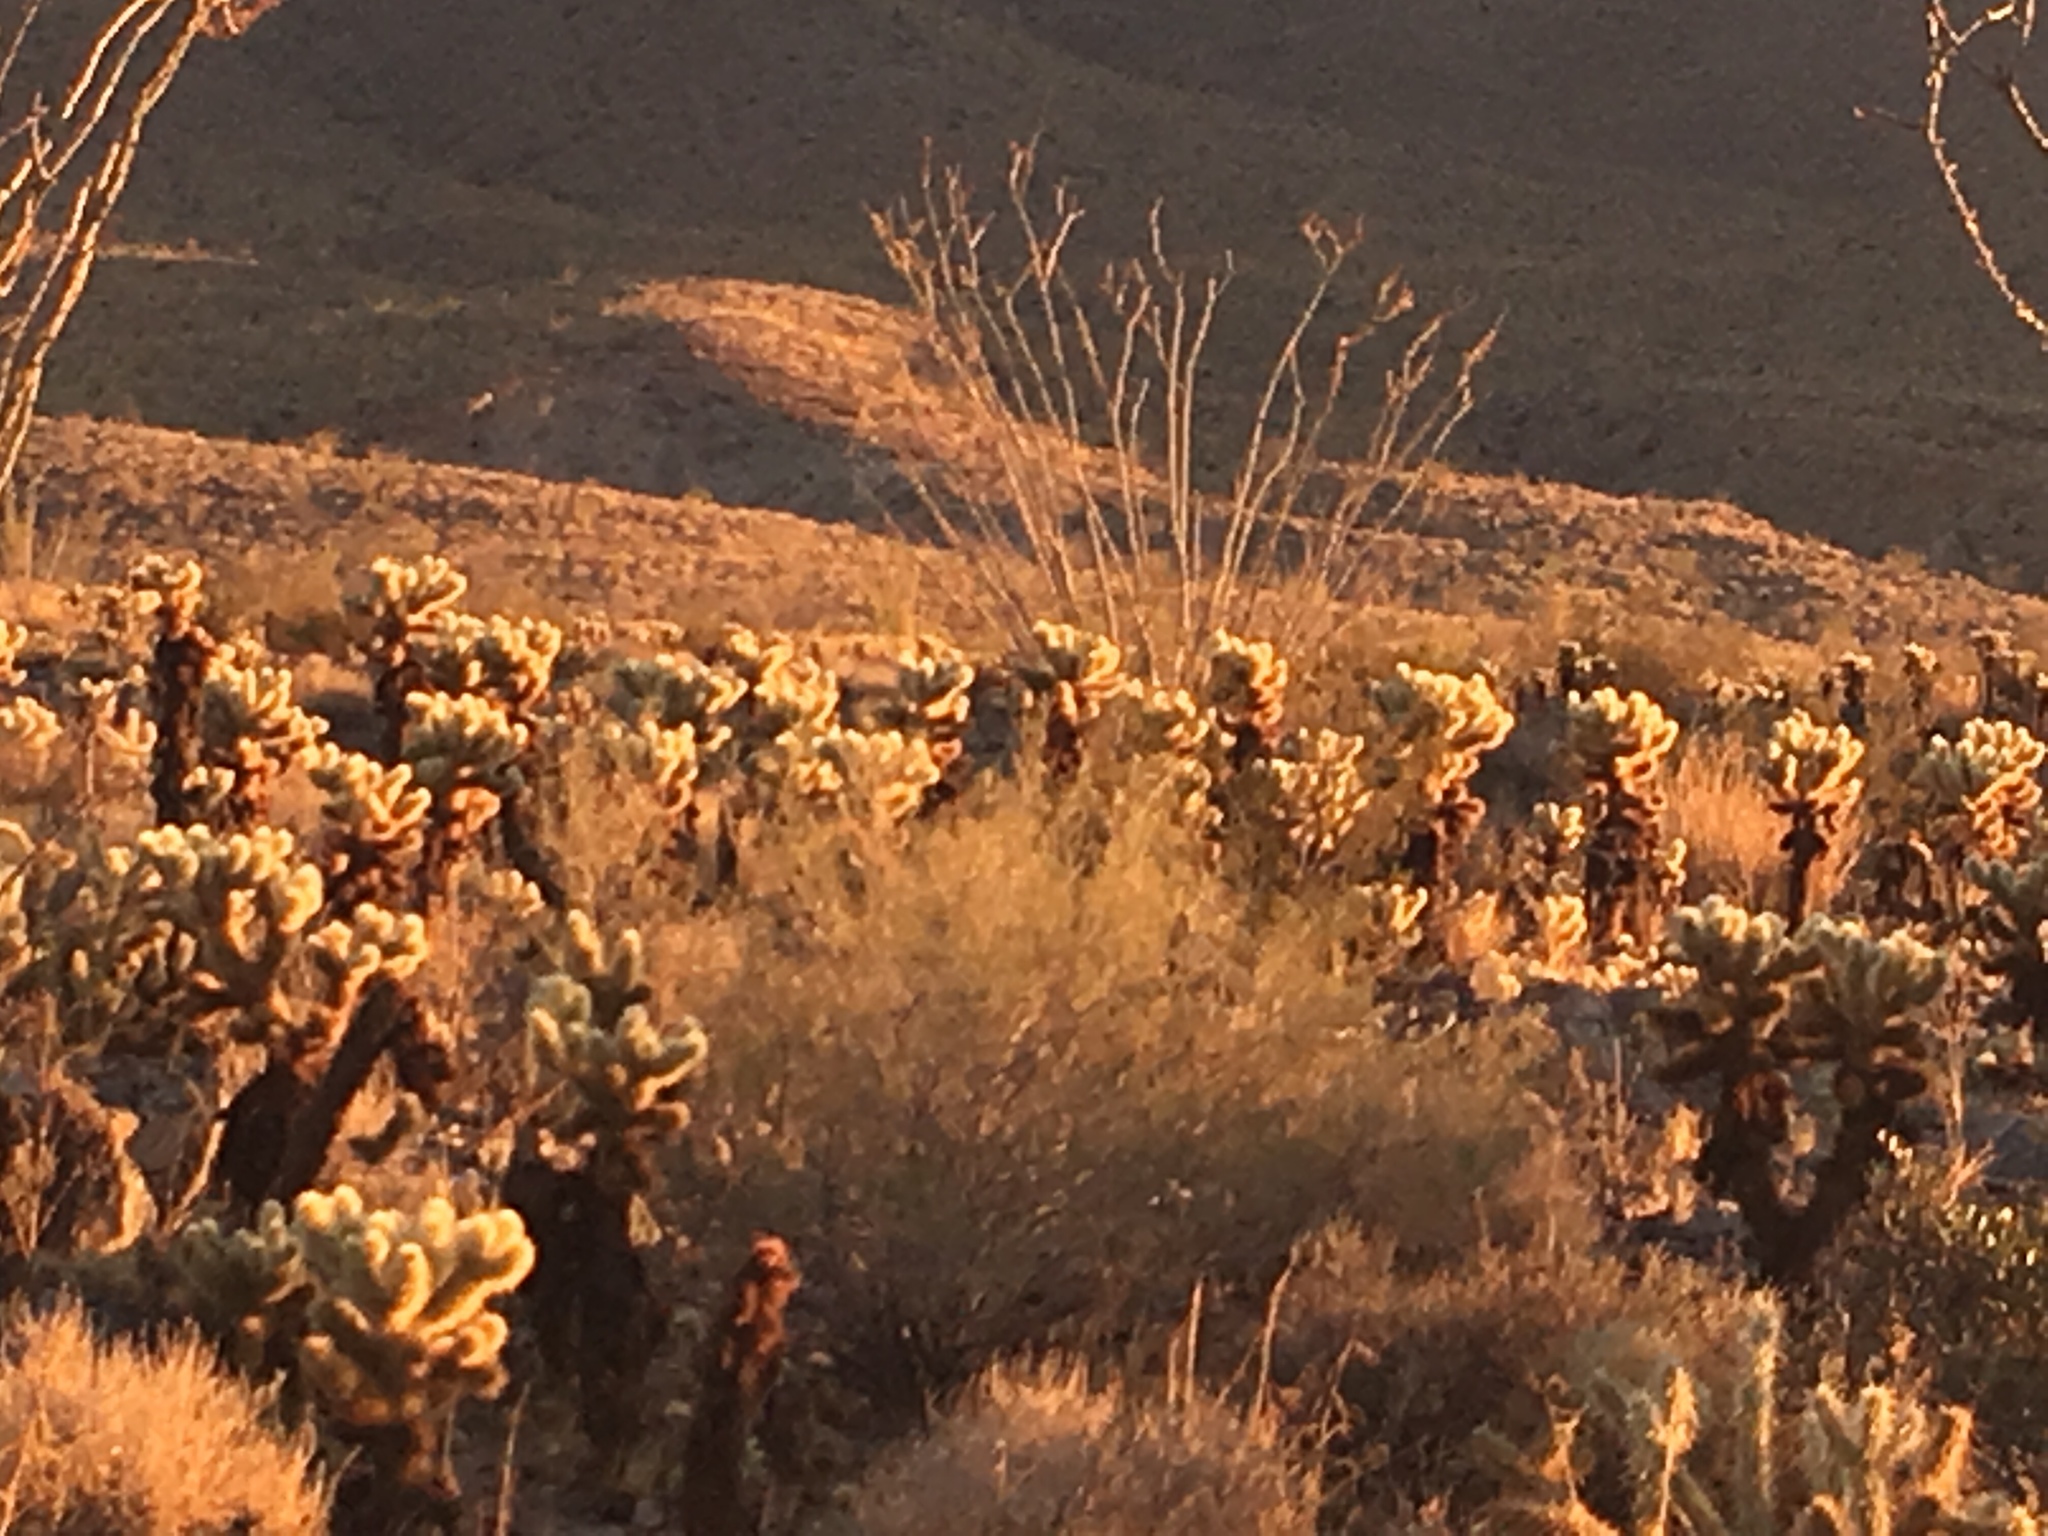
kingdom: Plantae
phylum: Tracheophyta
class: Magnoliopsida
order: Caryophyllales
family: Cactaceae
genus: Cylindropuntia
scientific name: Cylindropuntia fosbergii
